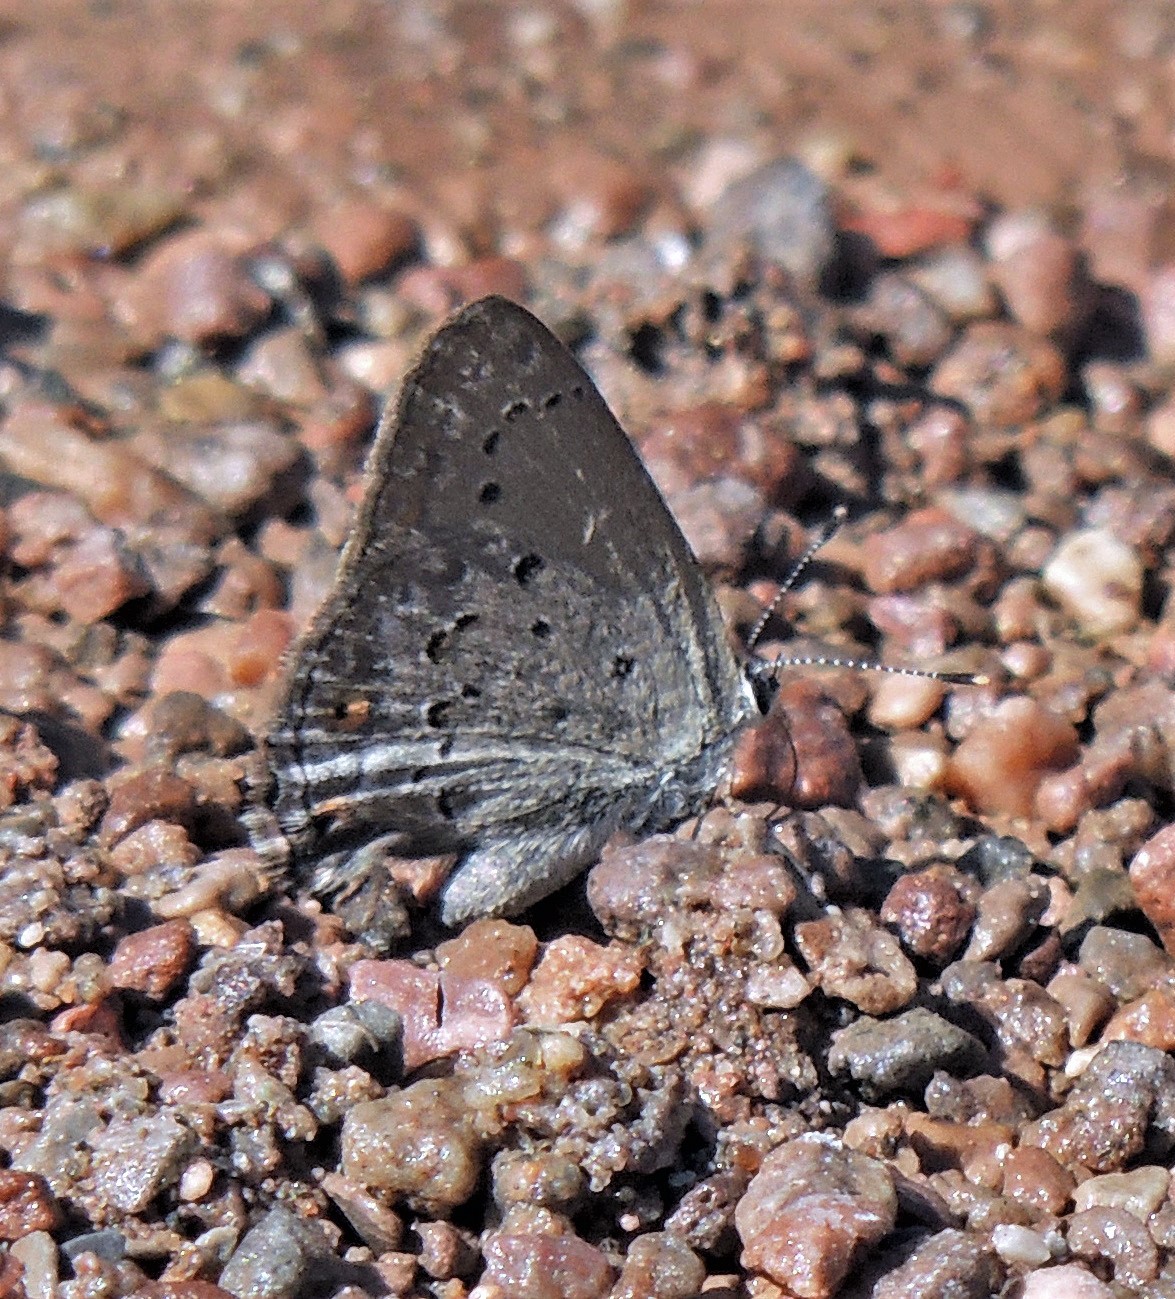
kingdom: Animalia
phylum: Arthropoda
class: Insecta
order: Lepidoptera
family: Lycaenidae
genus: Strymon
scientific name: Strymon eurytulus
